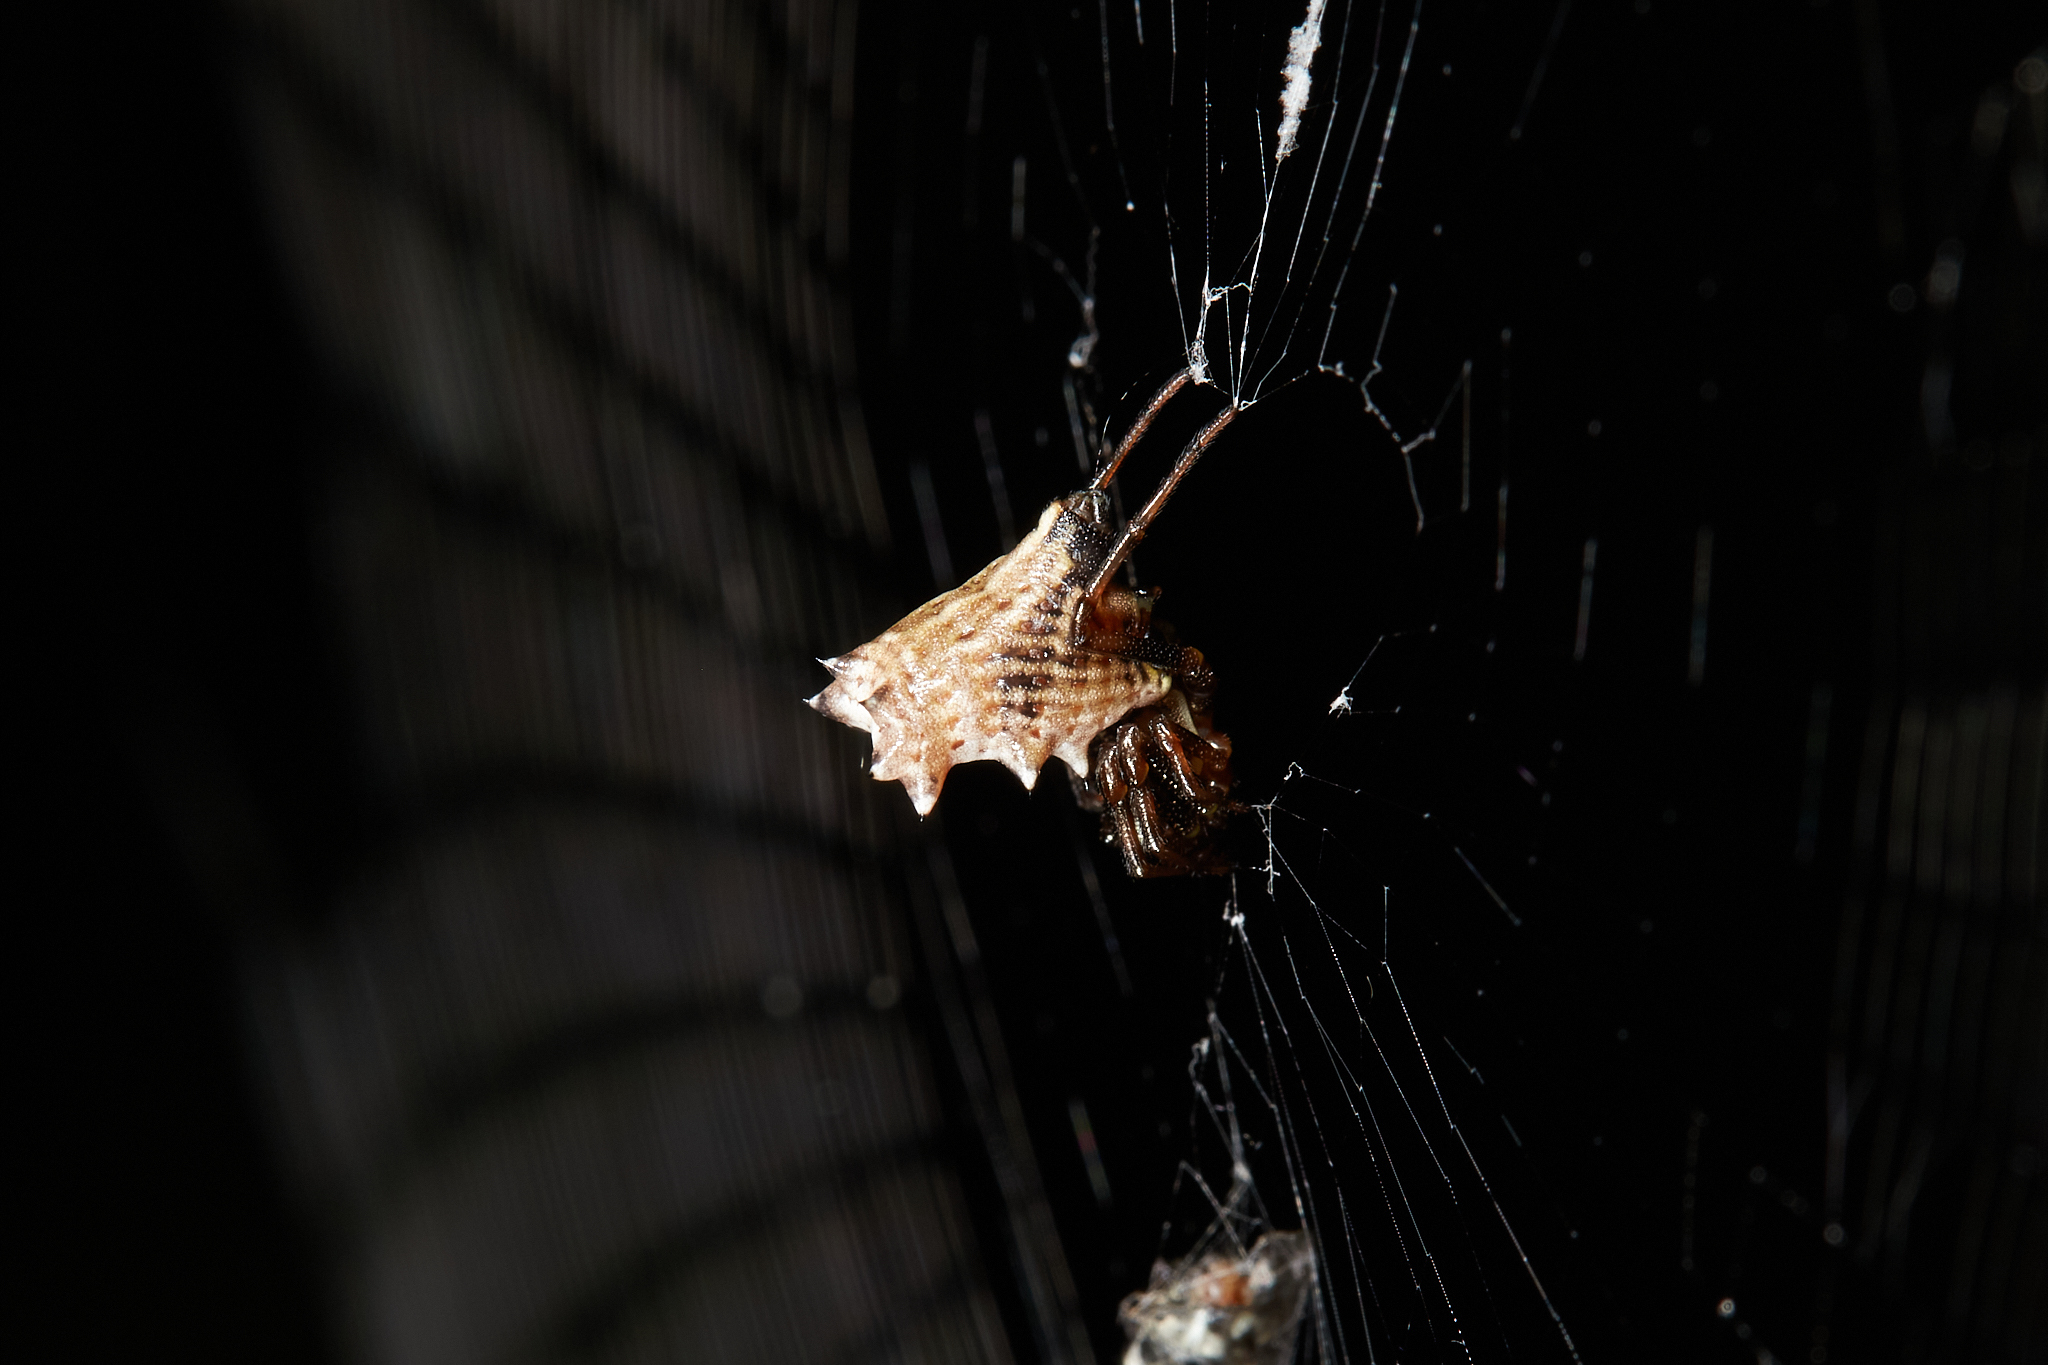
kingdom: Animalia
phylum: Arthropoda
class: Arachnida
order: Araneae
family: Araneidae
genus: Micrathena
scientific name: Micrathena gracilis
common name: Orb weavers
